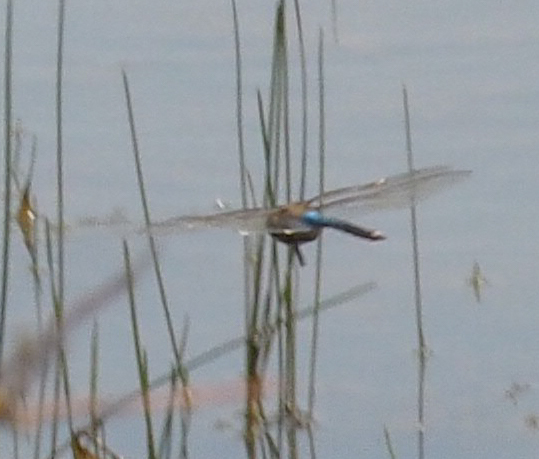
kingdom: Animalia
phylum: Arthropoda
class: Insecta
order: Odonata
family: Aeshnidae
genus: Anax
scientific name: Anax junius
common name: Common green darner
